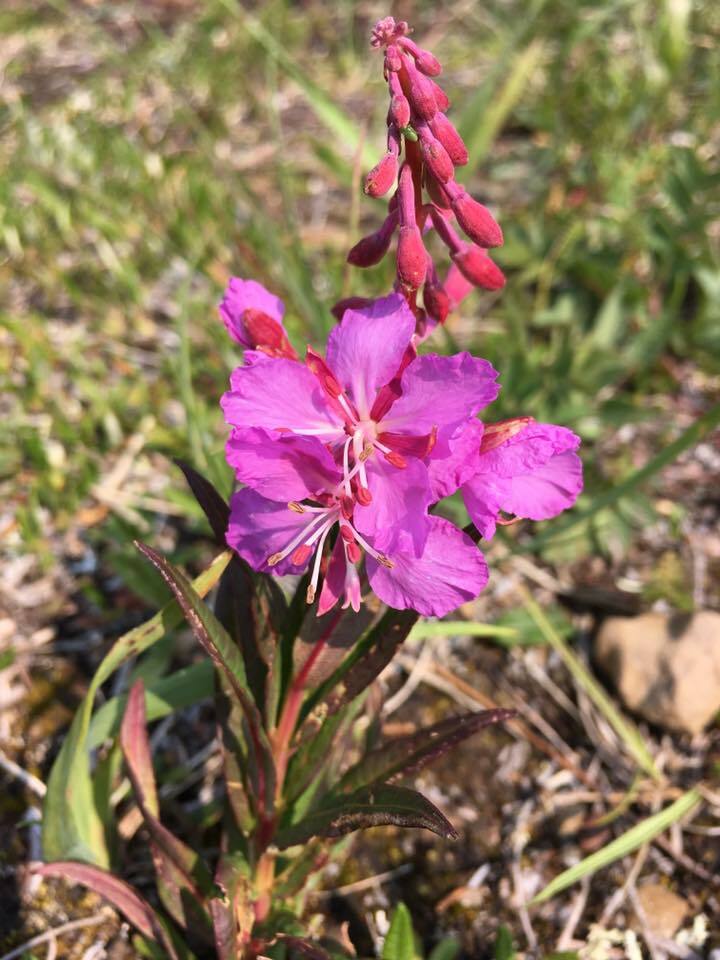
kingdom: Plantae
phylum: Tracheophyta
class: Magnoliopsida
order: Myrtales
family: Onagraceae
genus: Chamaenerion
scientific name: Chamaenerion angustifolium
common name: Fireweed
